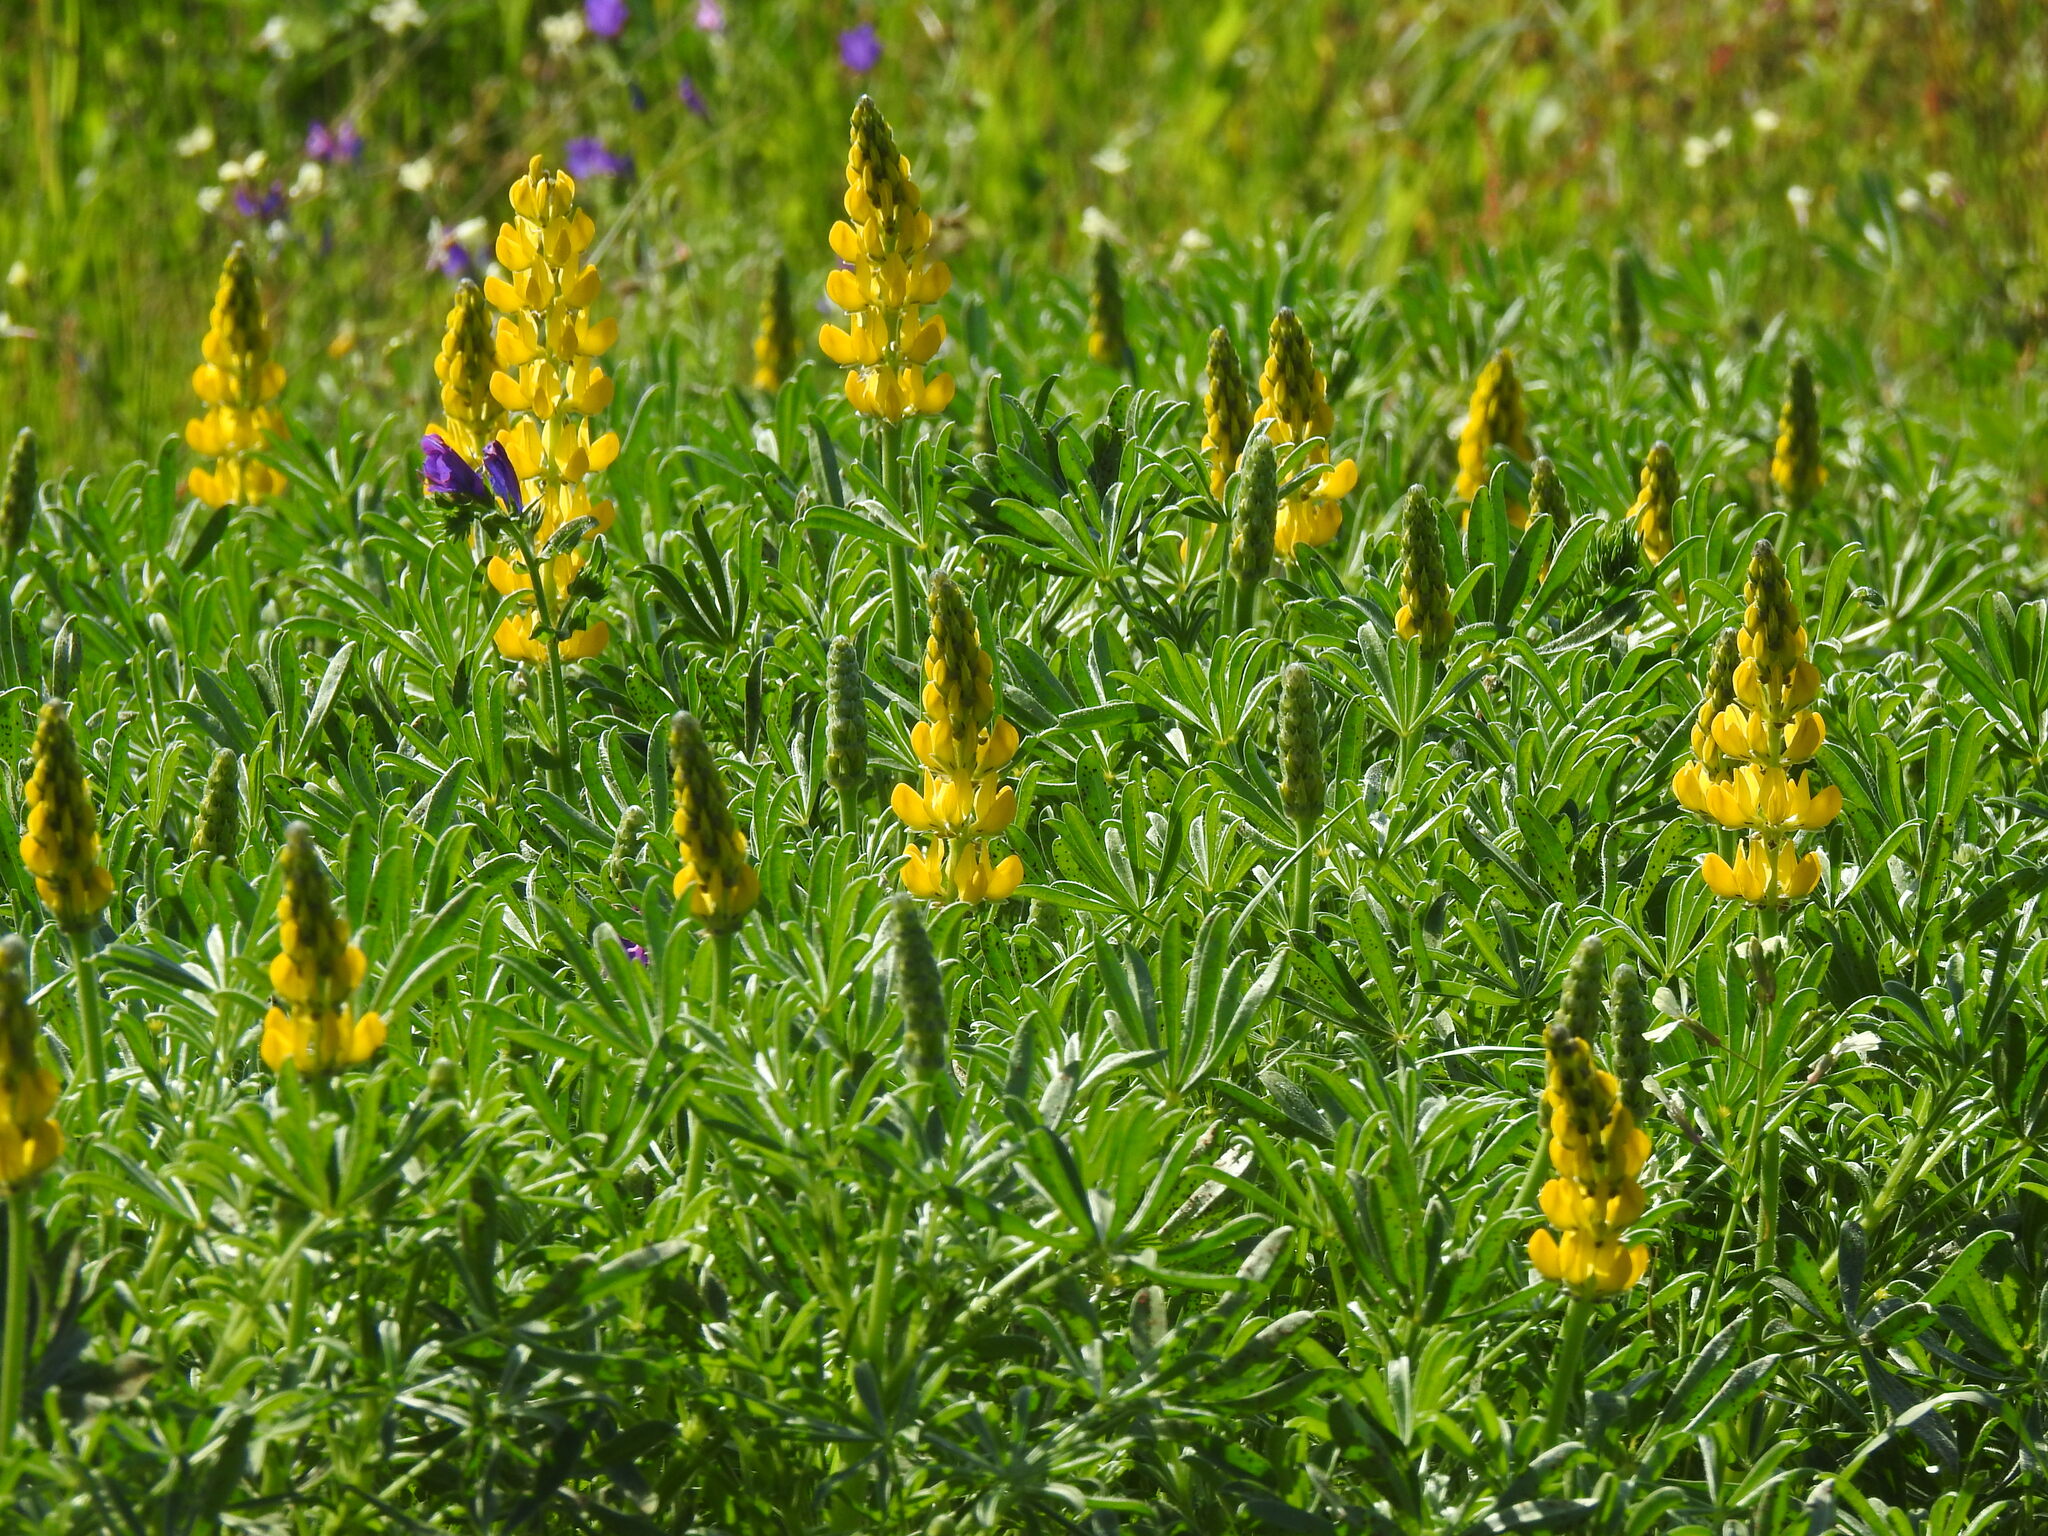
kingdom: Plantae
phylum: Tracheophyta
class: Magnoliopsida
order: Fabales
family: Fabaceae
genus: Lupinus
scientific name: Lupinus luteus
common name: European yellow lupine
